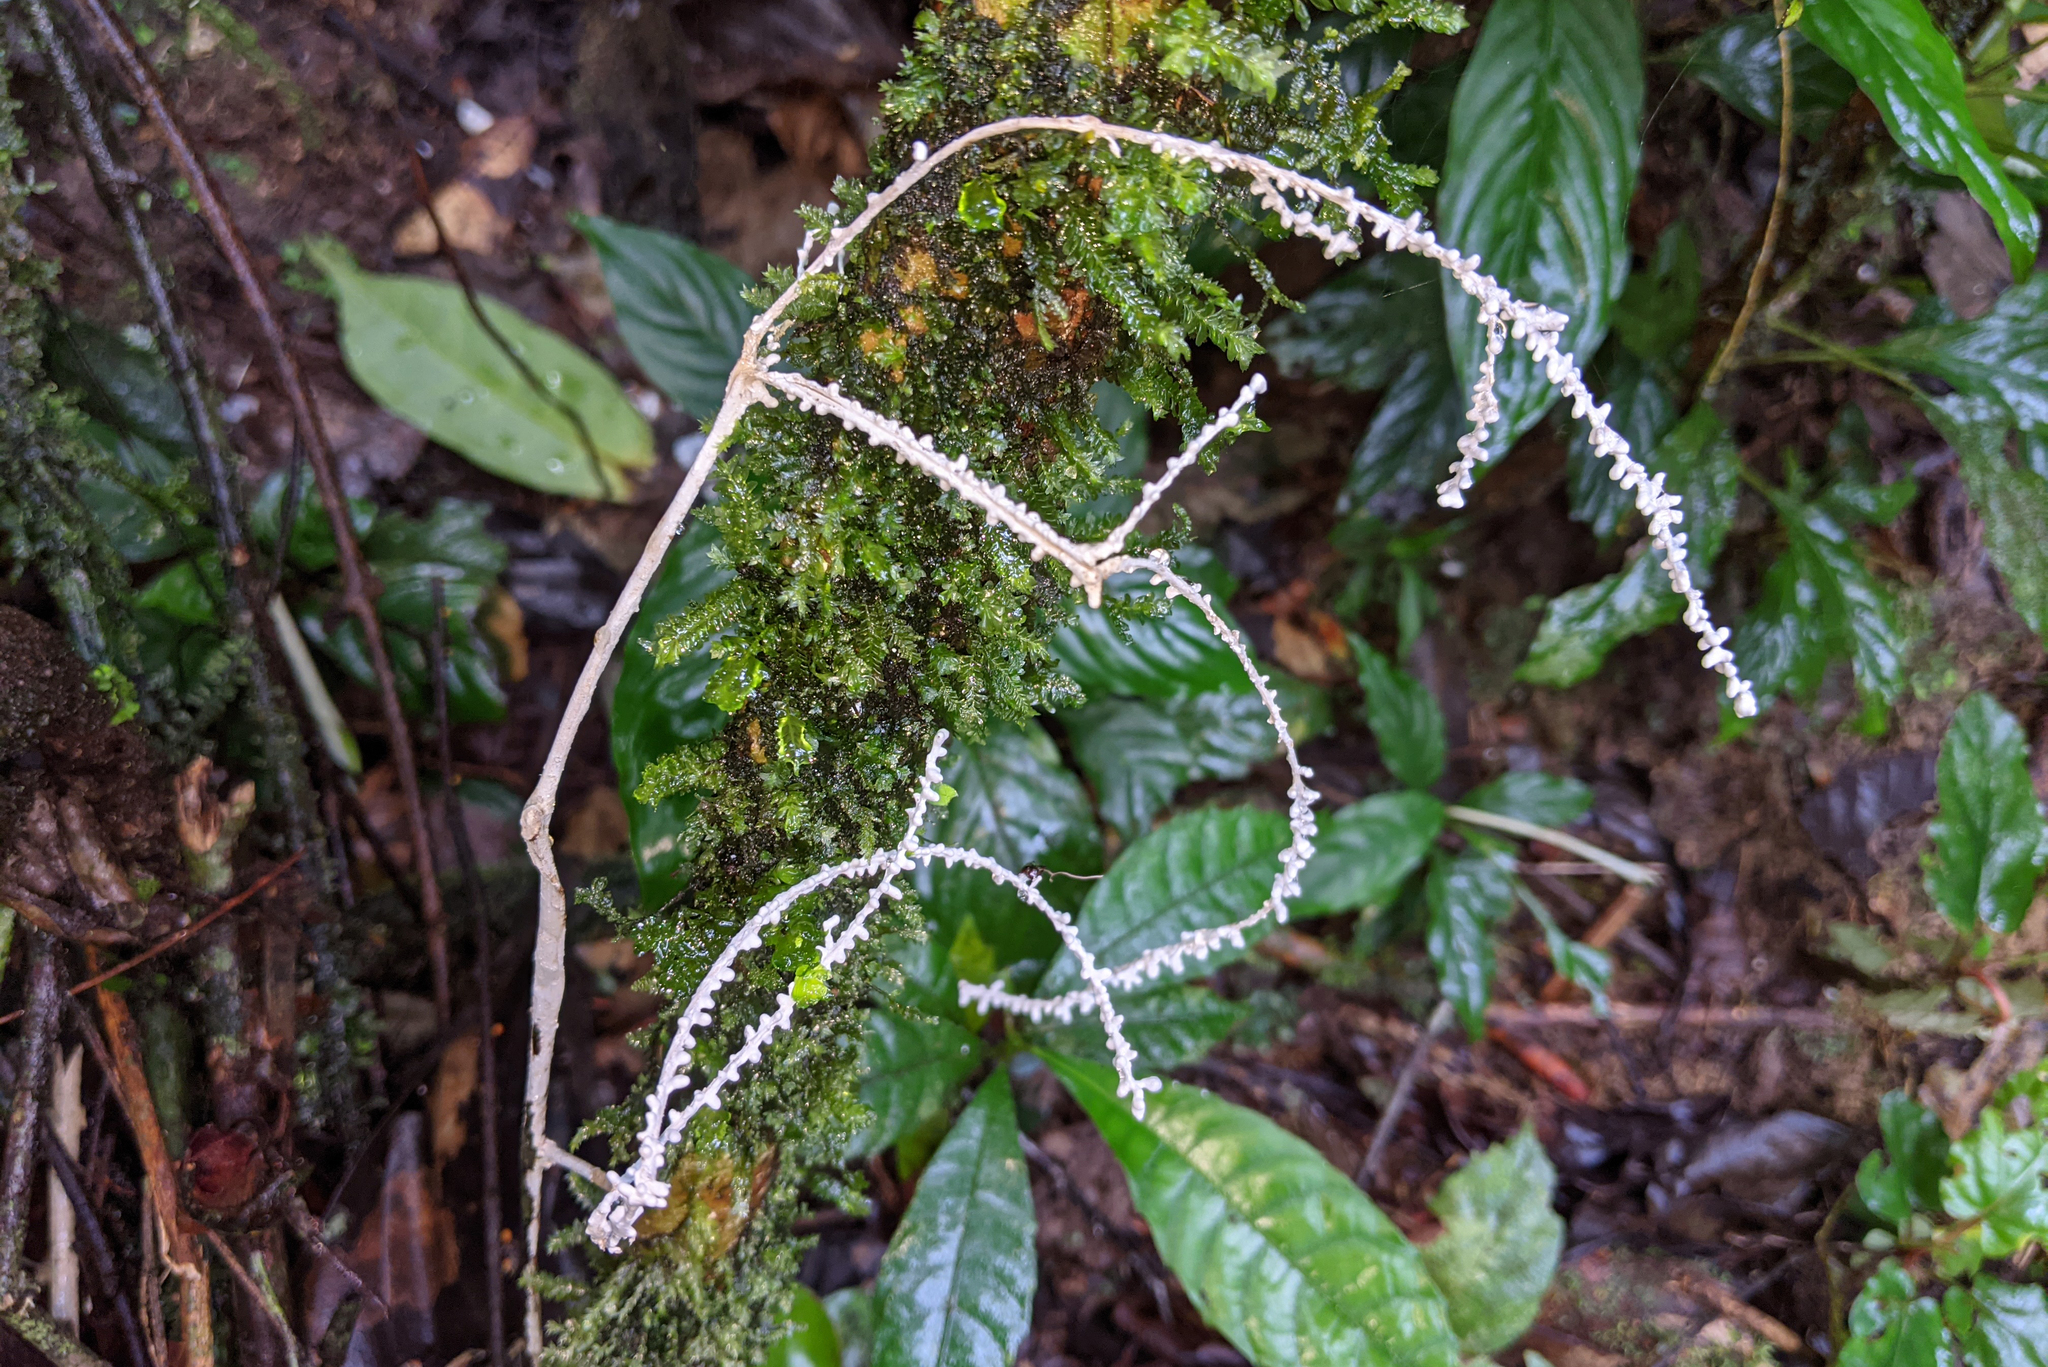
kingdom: Fungi
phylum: Basidiomycota
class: Agaricomycetes
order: Agaricales
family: Marasmiaceae
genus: Brunneocorticium
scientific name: Brunneocorticium corynecarpon
